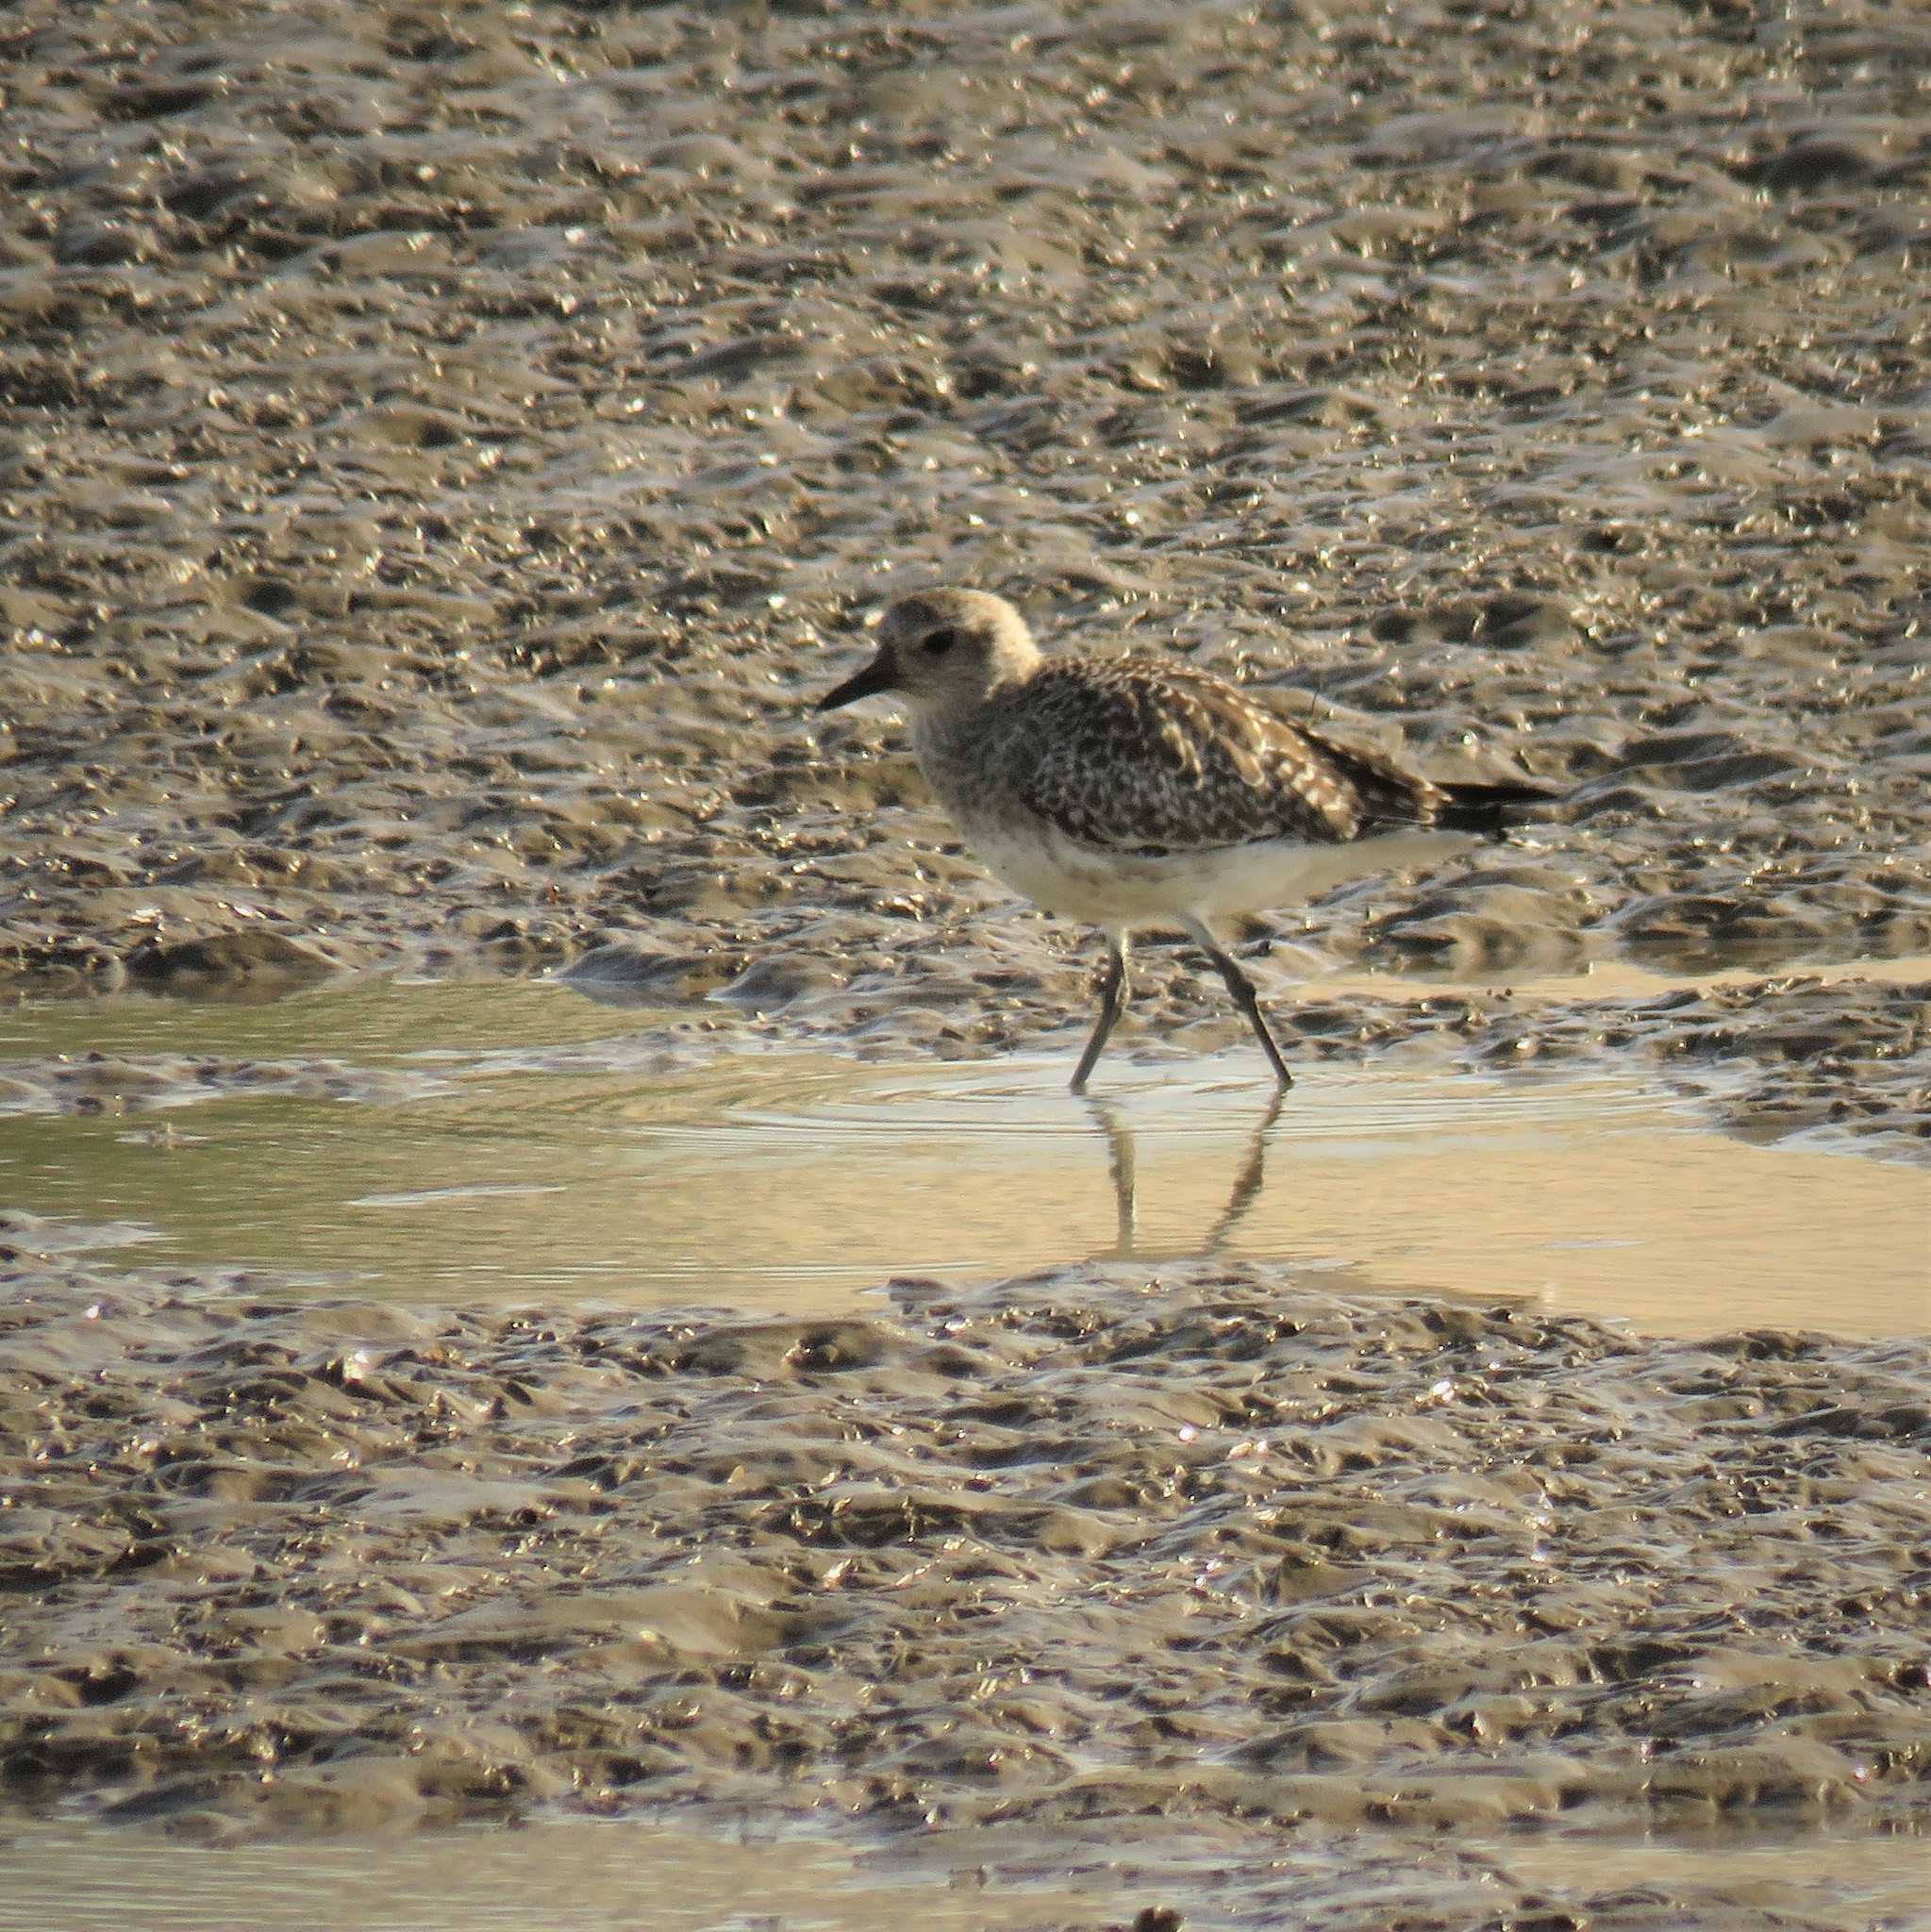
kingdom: Animalia
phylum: Chordata
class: Aves
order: Charadriiformes
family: Charadriidae
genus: Pluvialis
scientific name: Pluvialis squatarola
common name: Grey plover
